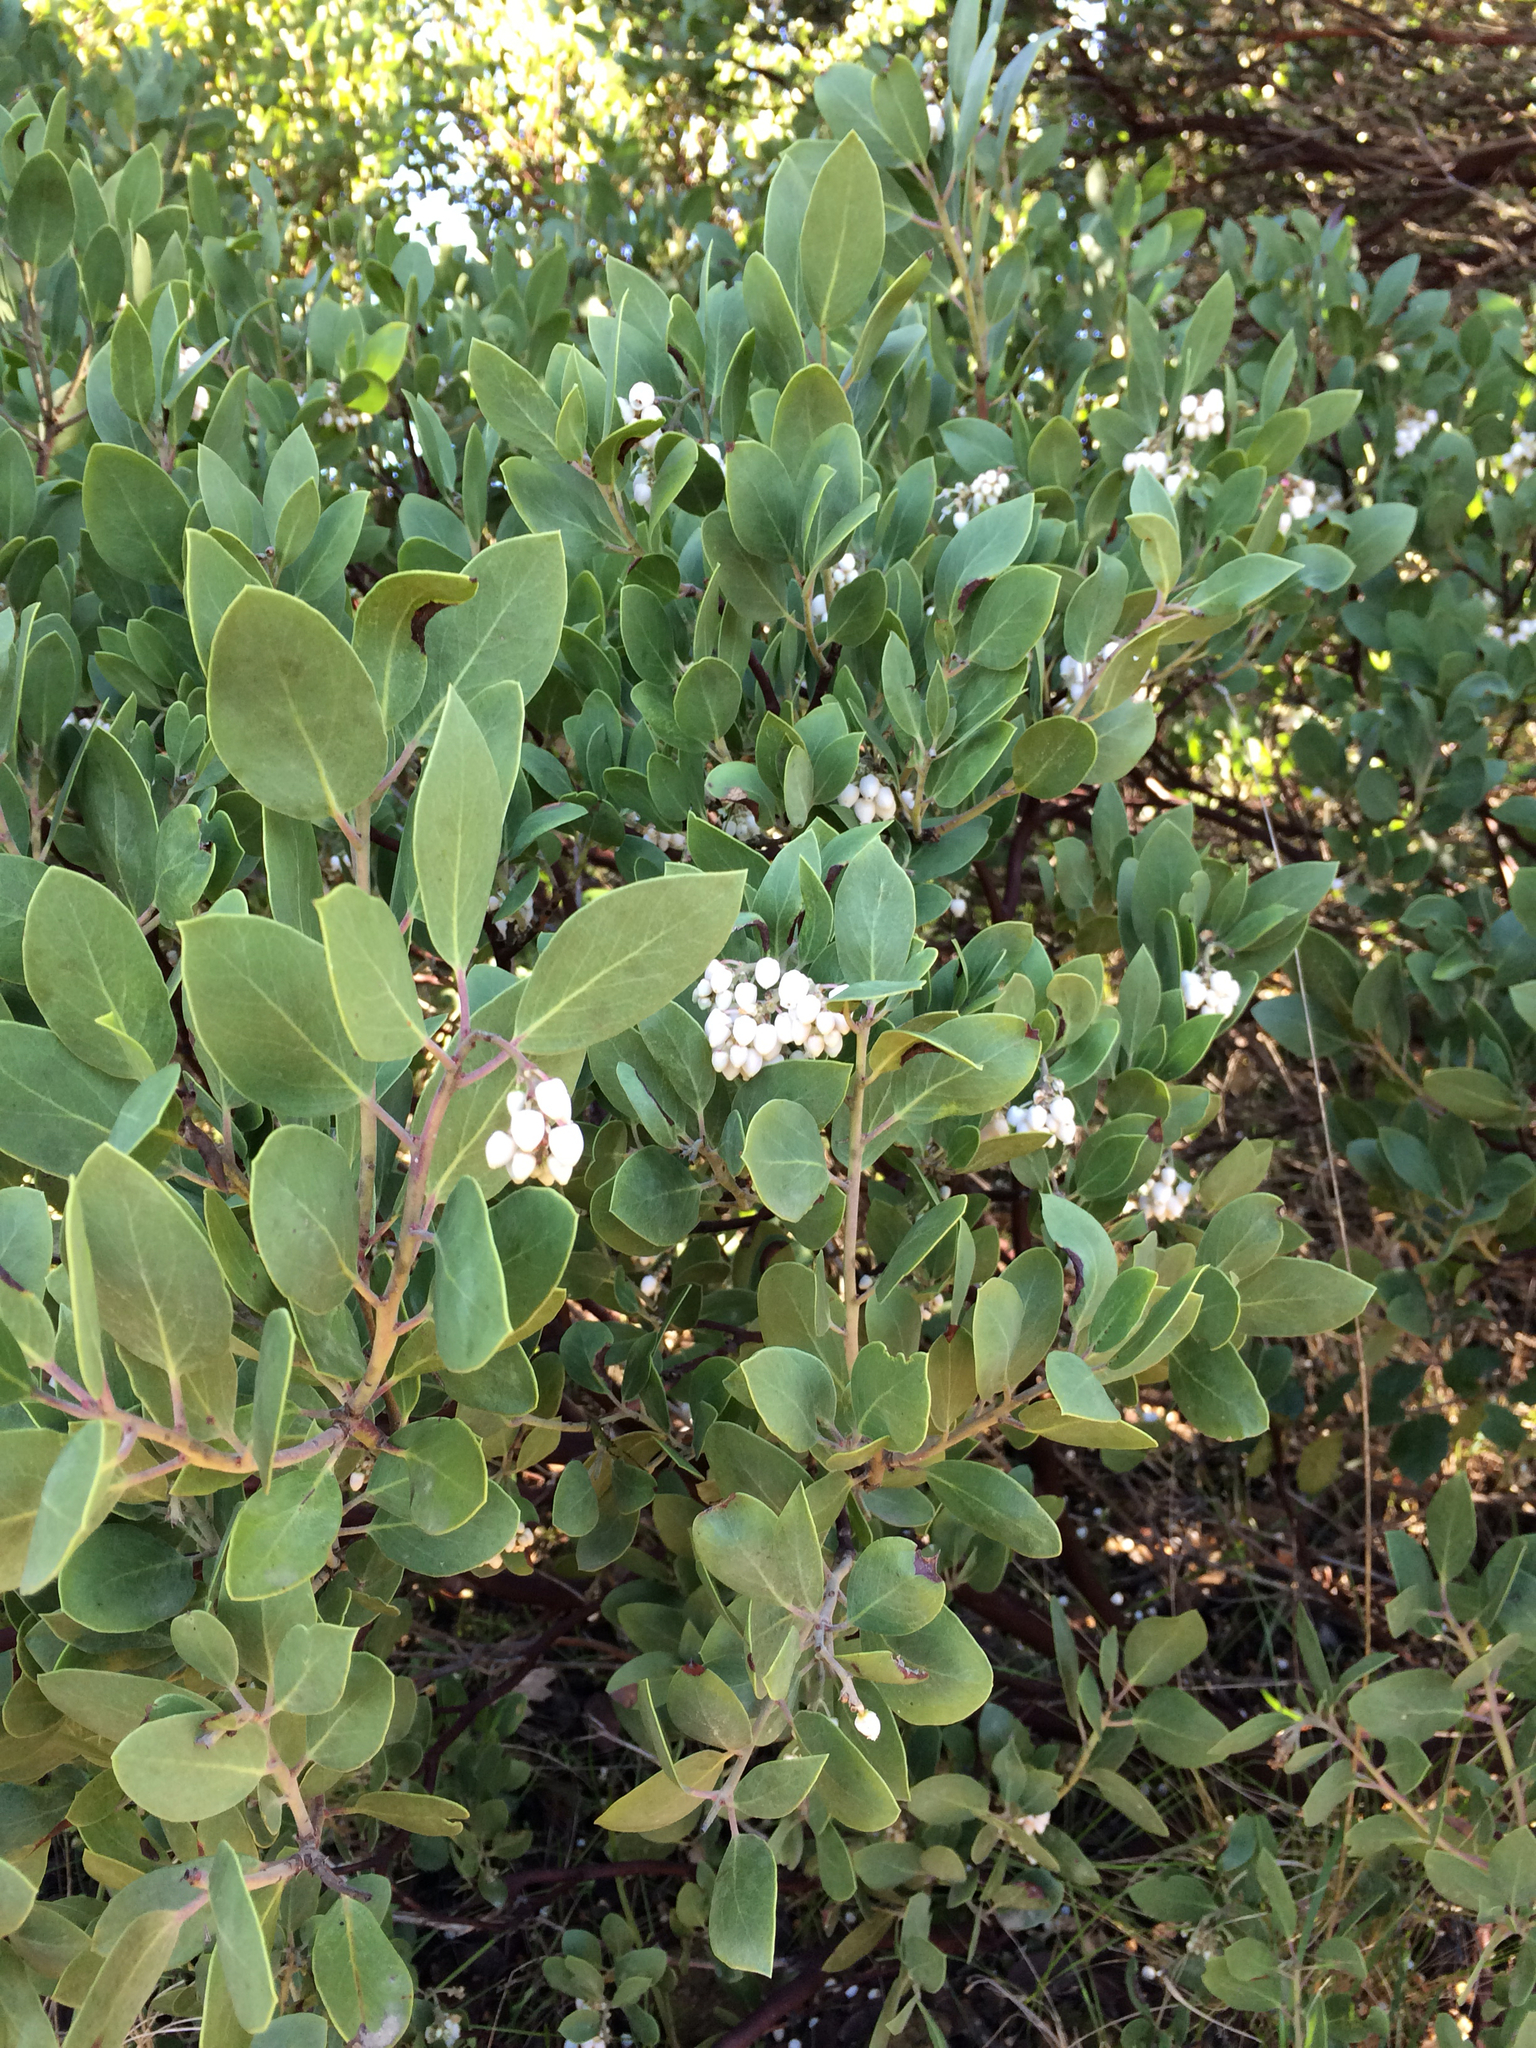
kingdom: Plantae
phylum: Tracheophyta
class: Magnoliopsida
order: Ericales
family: Ericaceae
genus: Arctostaphylos
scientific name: Arctostaphylos manzanita
